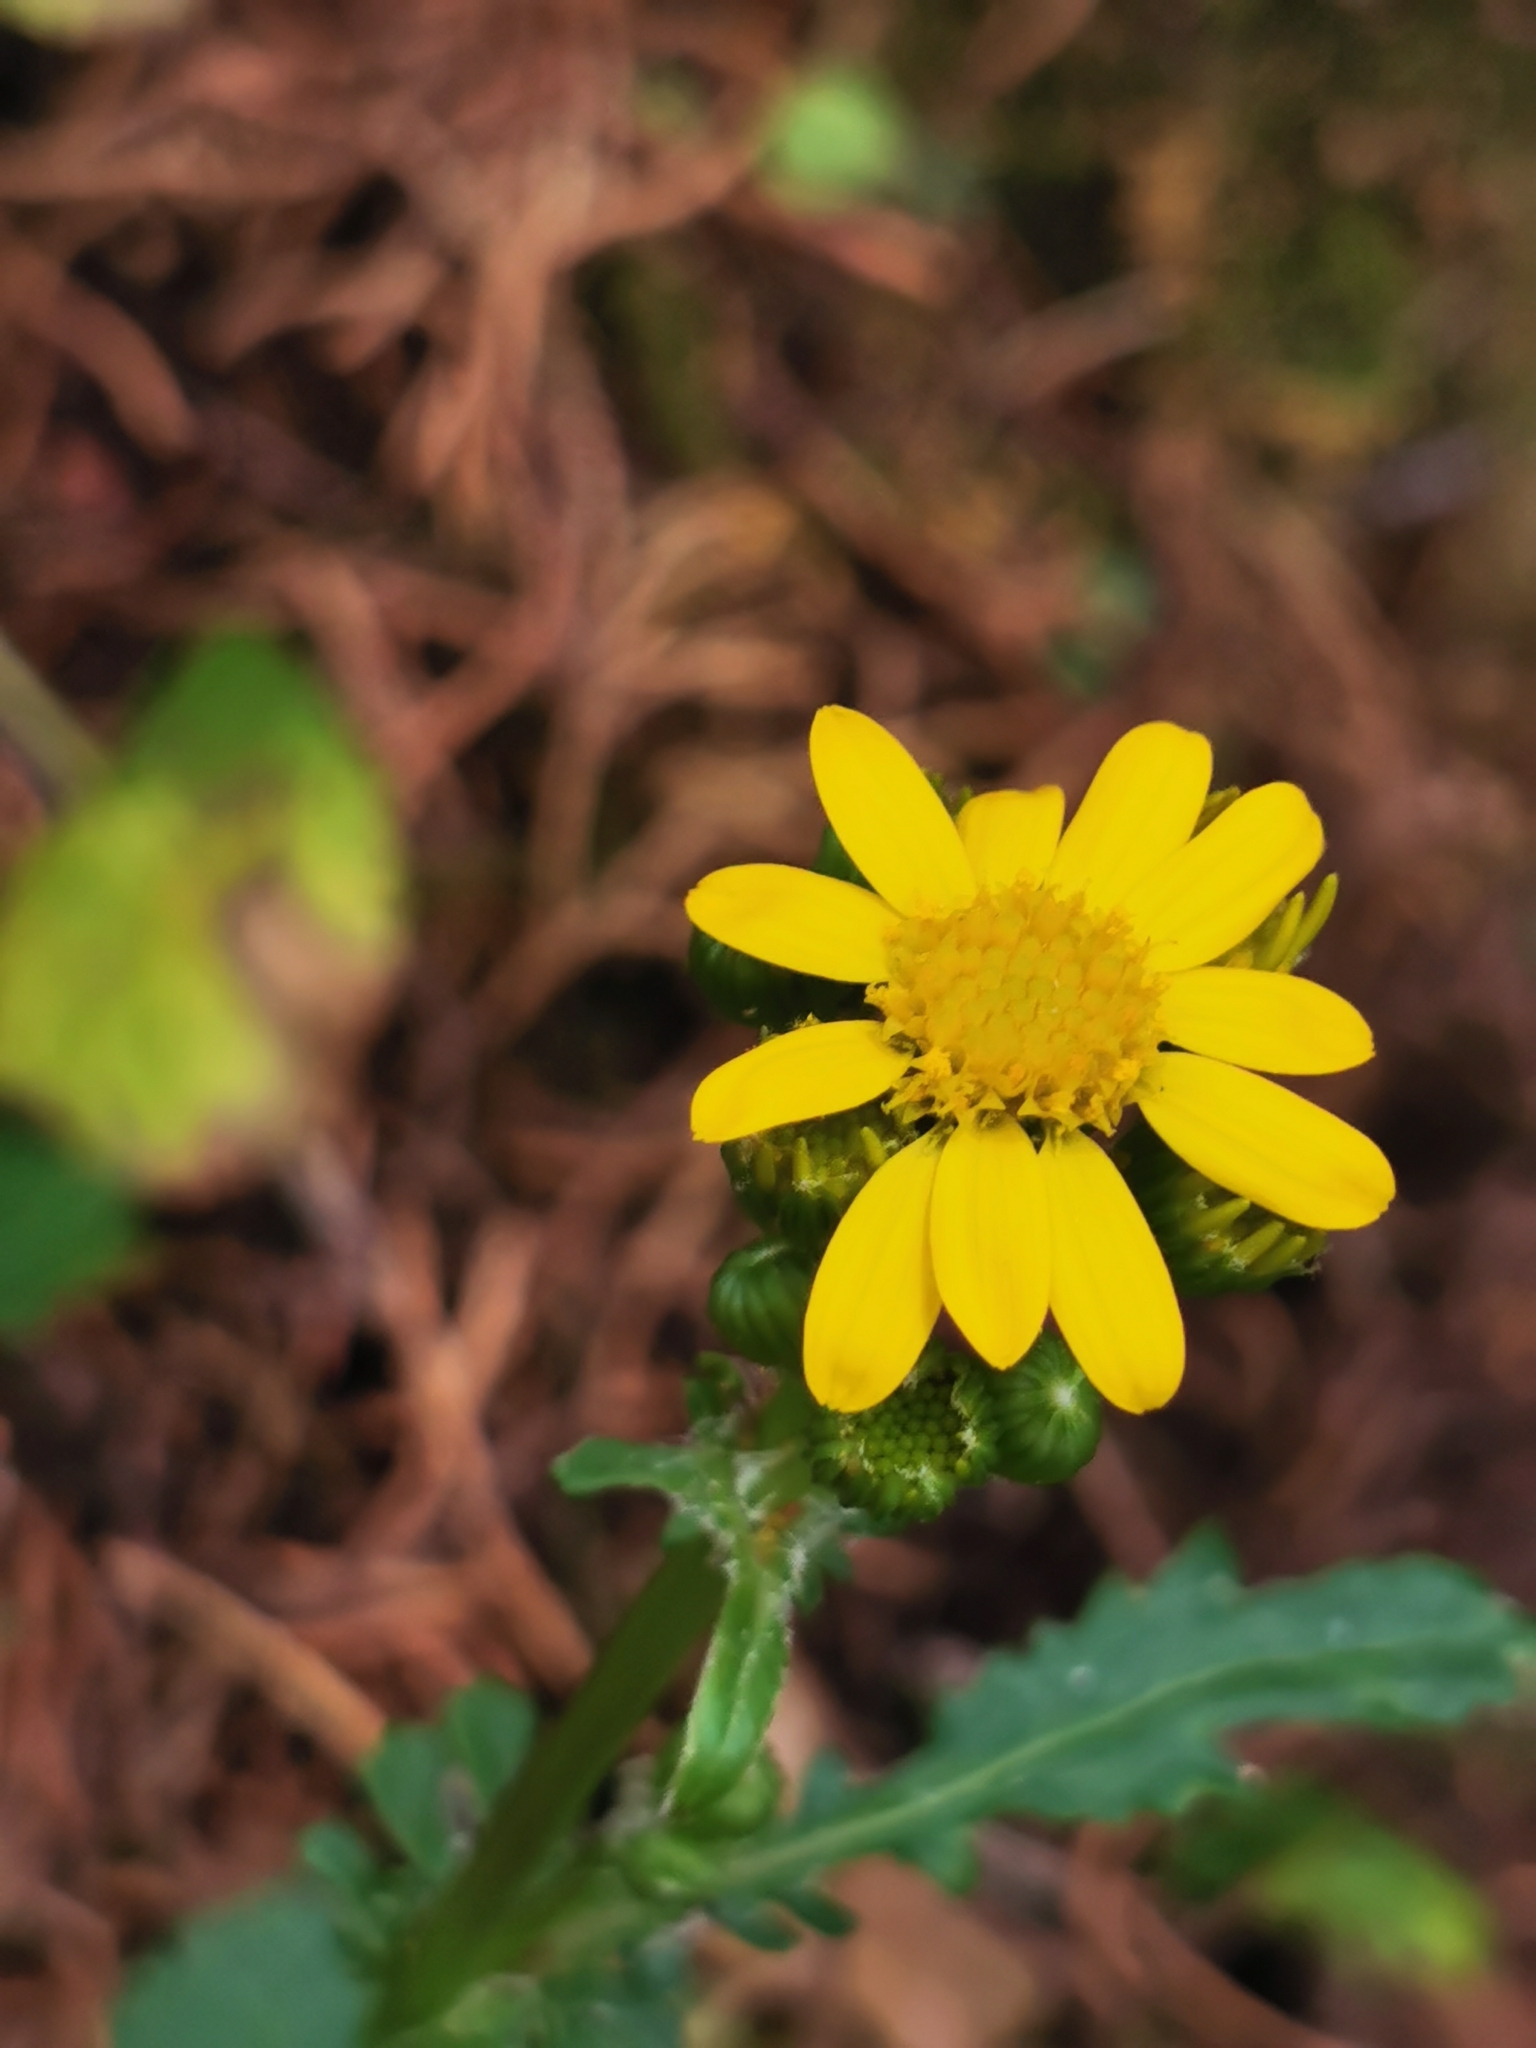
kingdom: Plantae
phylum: Tracheophyta
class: Magnoliopsida
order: Asterales
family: Asteraceae
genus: Packera
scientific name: Packera quebradensis
